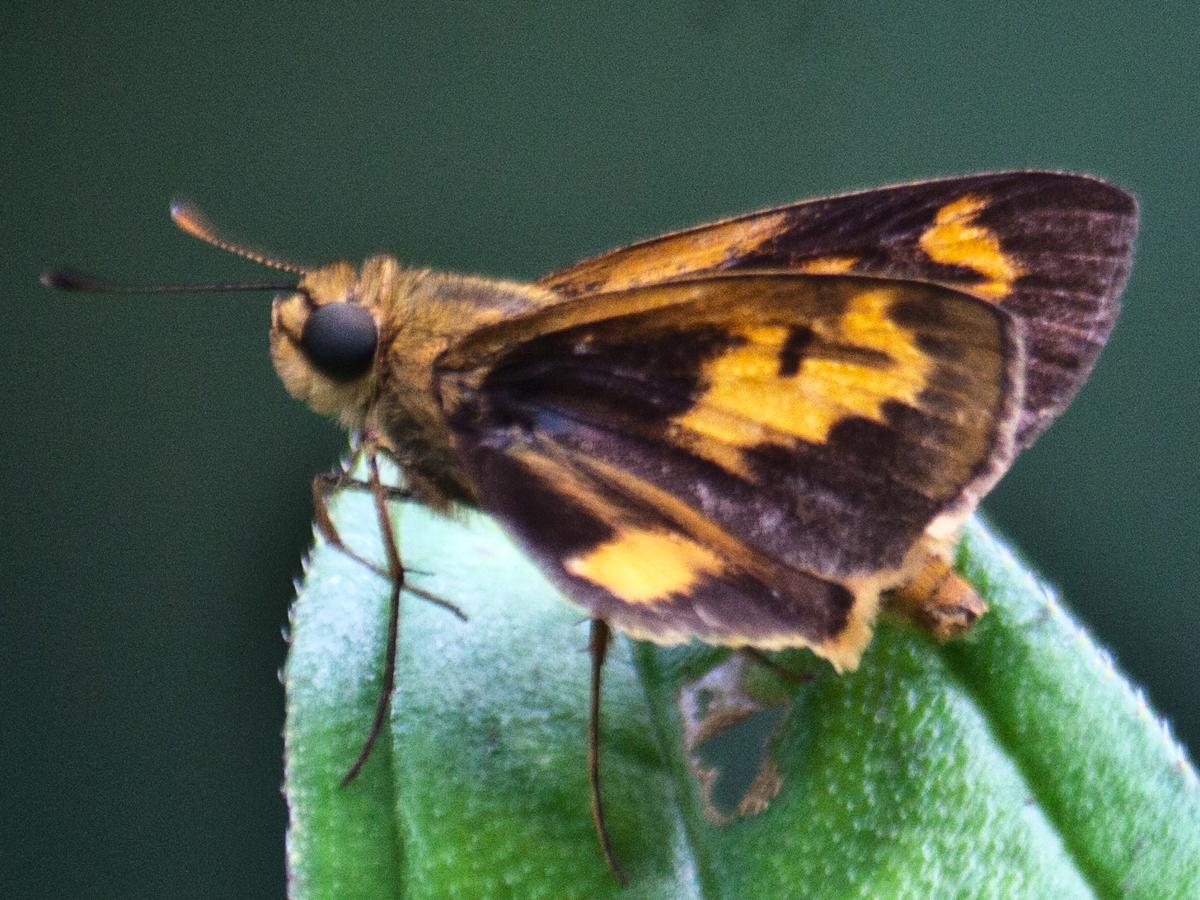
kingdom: Animalia
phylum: Arthropoda
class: Insecta
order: Lepidoptera
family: Hesperiidae
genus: Oriens
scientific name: Oriens gola
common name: Common dartlet
